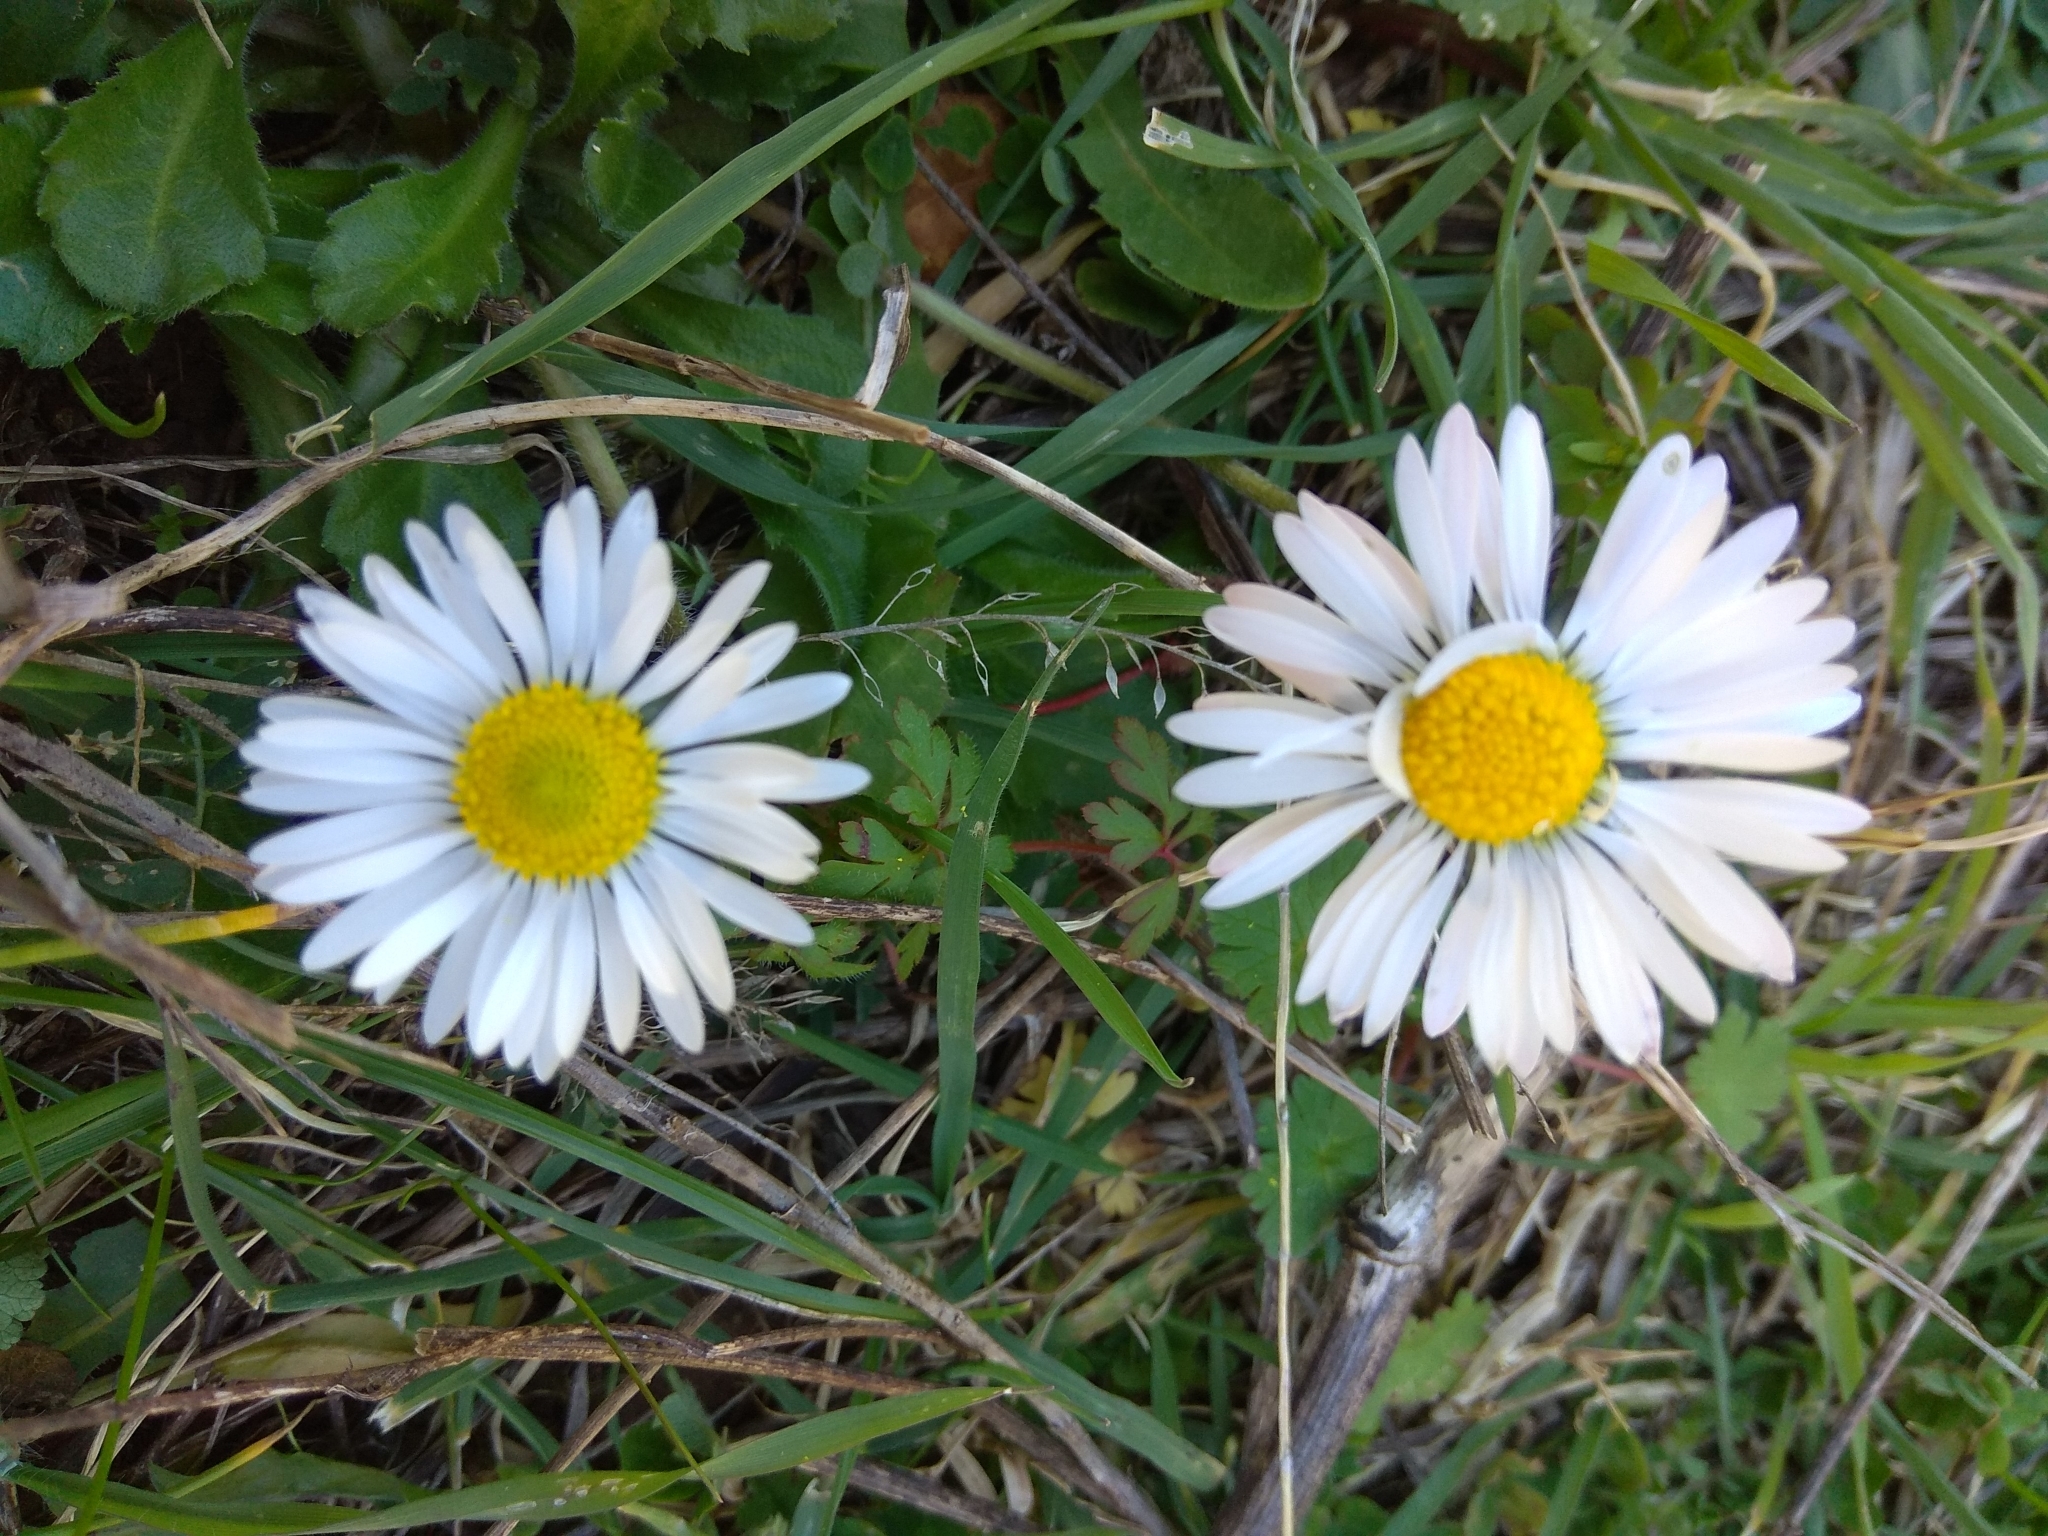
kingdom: Plantae
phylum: Tracheophyta
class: Magnoliopsida
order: Asterales
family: Asteraceae
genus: Bellis
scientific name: Bellis perennis
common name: Lawndaisy
